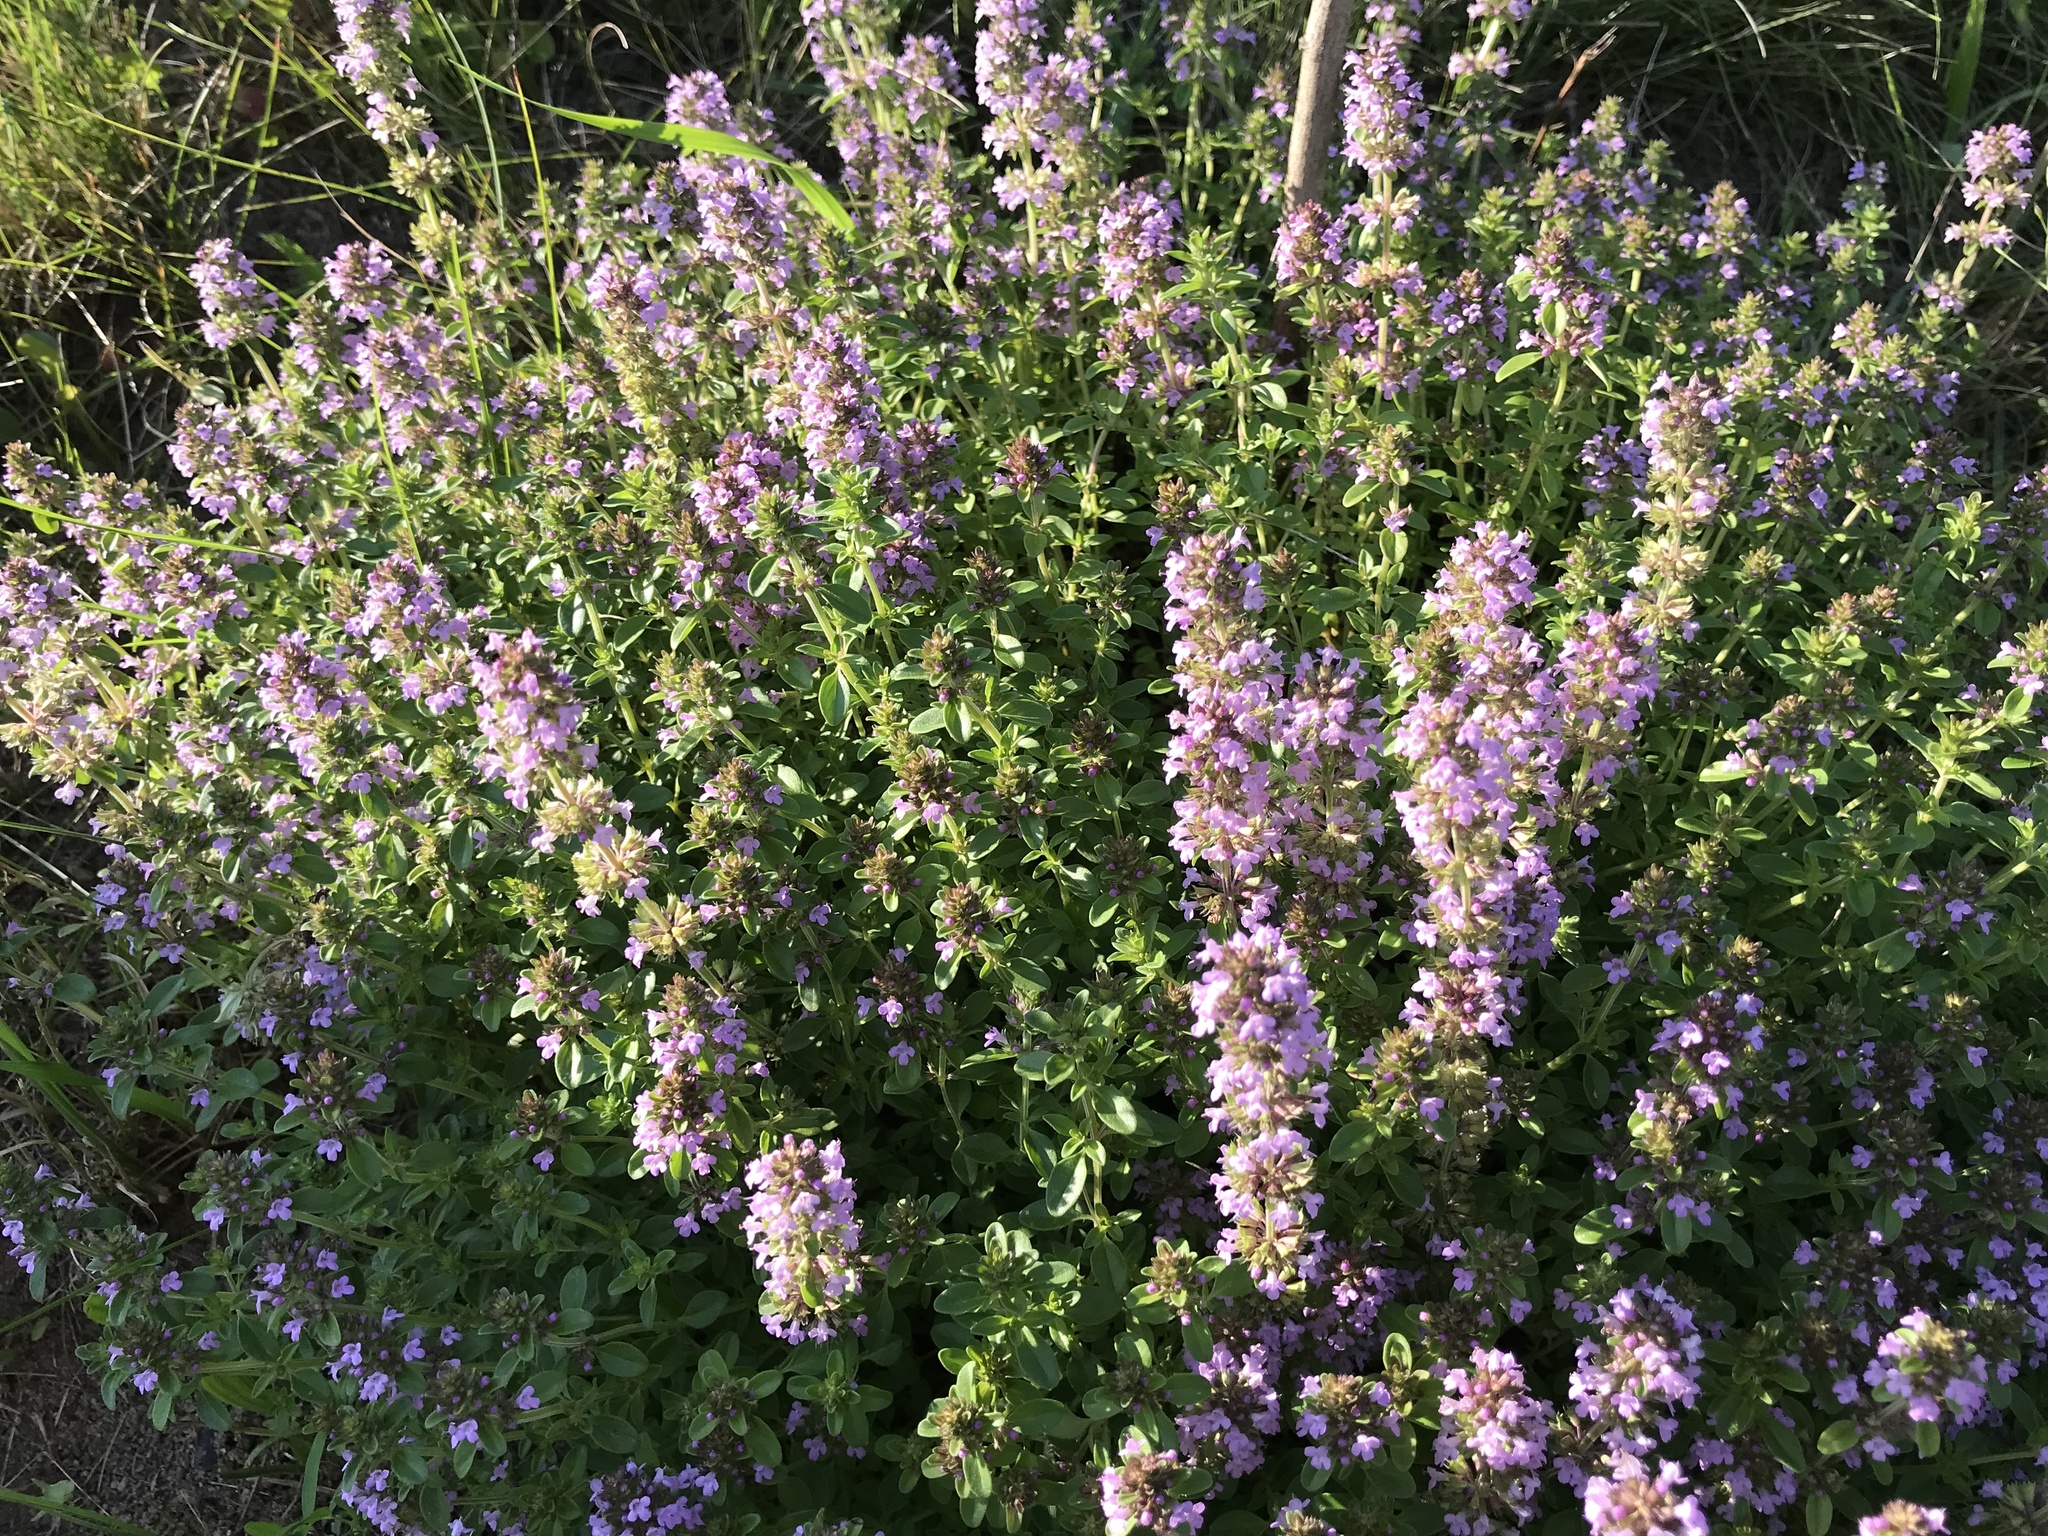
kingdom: Plantae
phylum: Tracheophyta
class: Magnoliopsida
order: Lamiales
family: Lamiaceae
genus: Thymus
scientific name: Thymus pulegioides
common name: Large thyme
